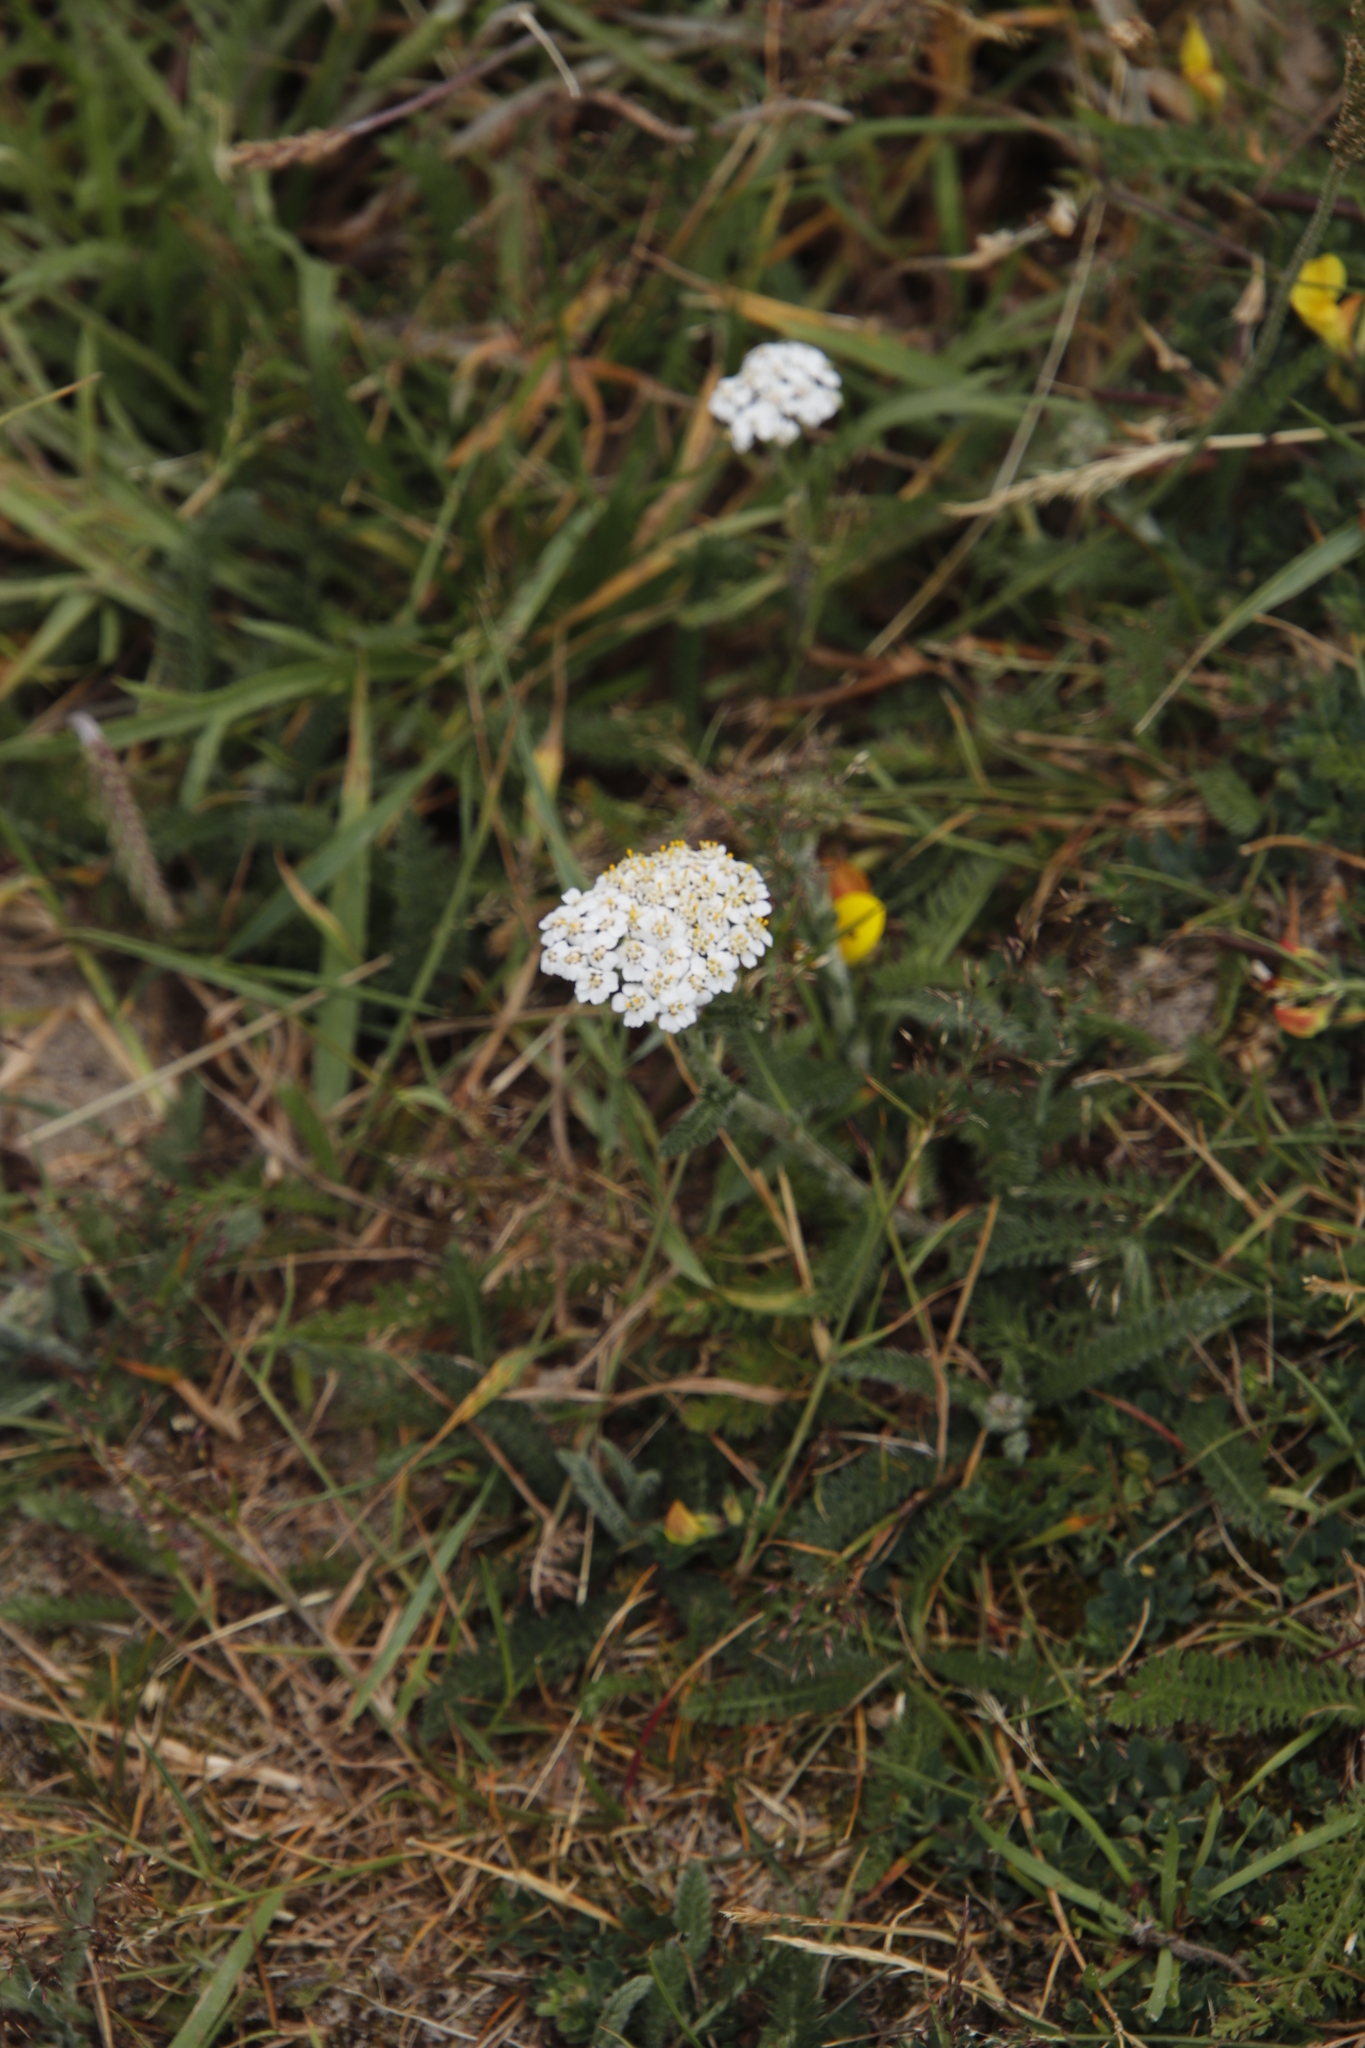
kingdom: Plantae
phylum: Tracheophyta
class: Magnoliopsida
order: Asterales
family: Asteraceae
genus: Achillea
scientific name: Achillea millefolium
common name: Yarrow
